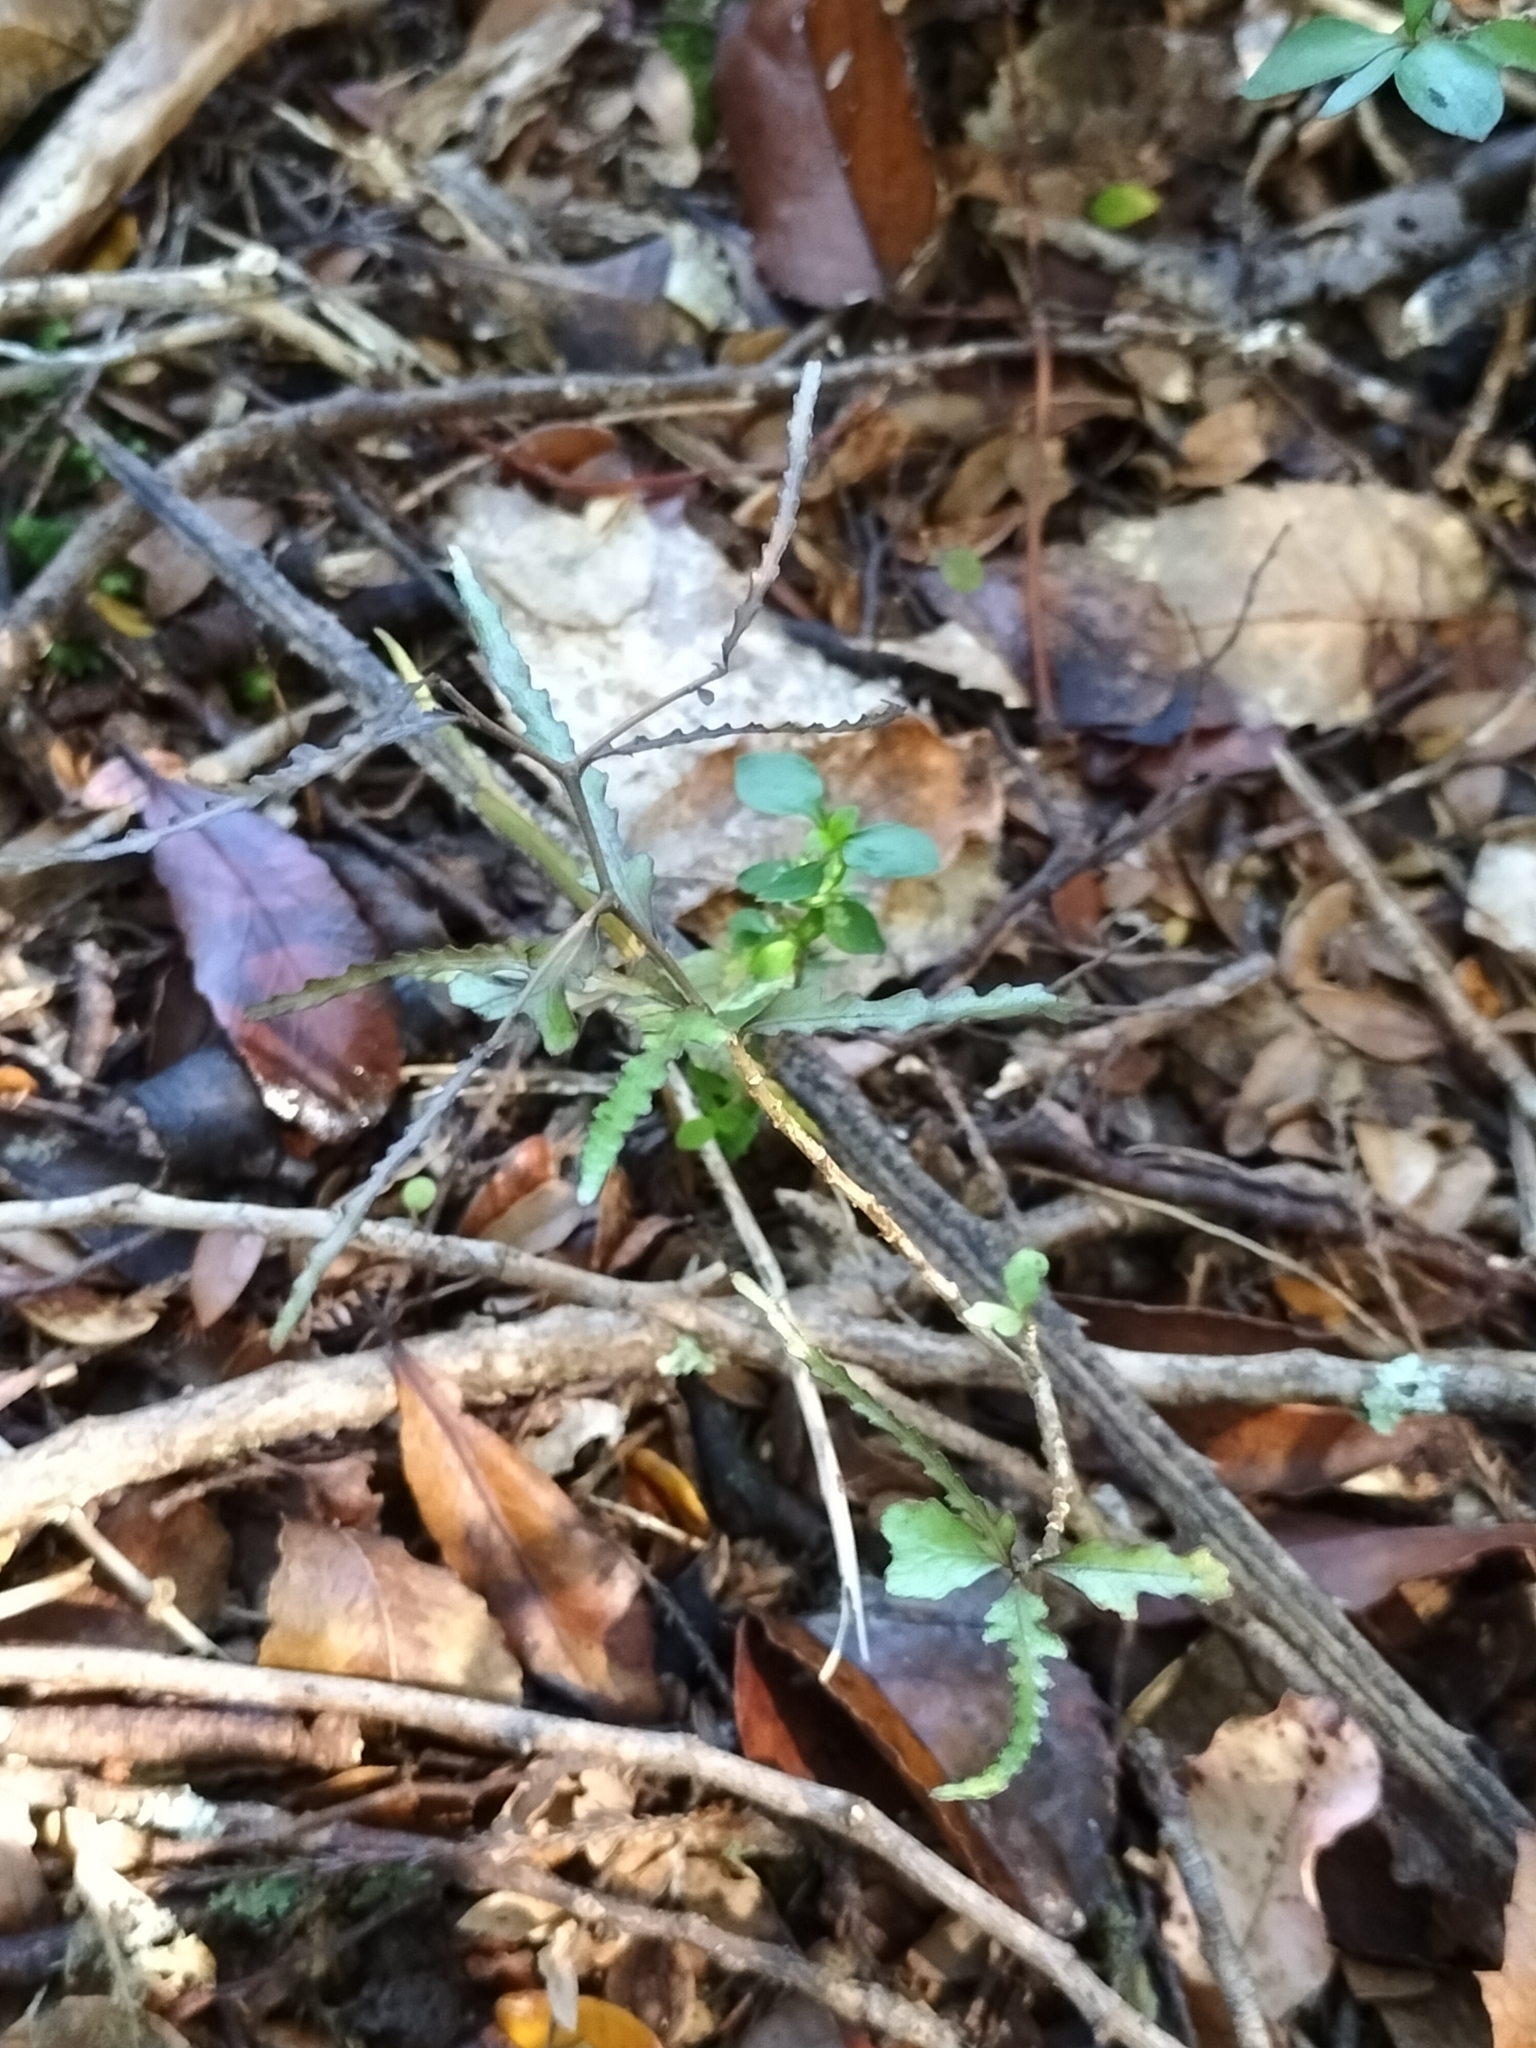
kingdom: Plantae
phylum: Tracheophyta
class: Magnoliopsida
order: Oxalidales
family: Elaeocarpaceae
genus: Elaeocarpus
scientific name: Elaeocarpus hookerianus
